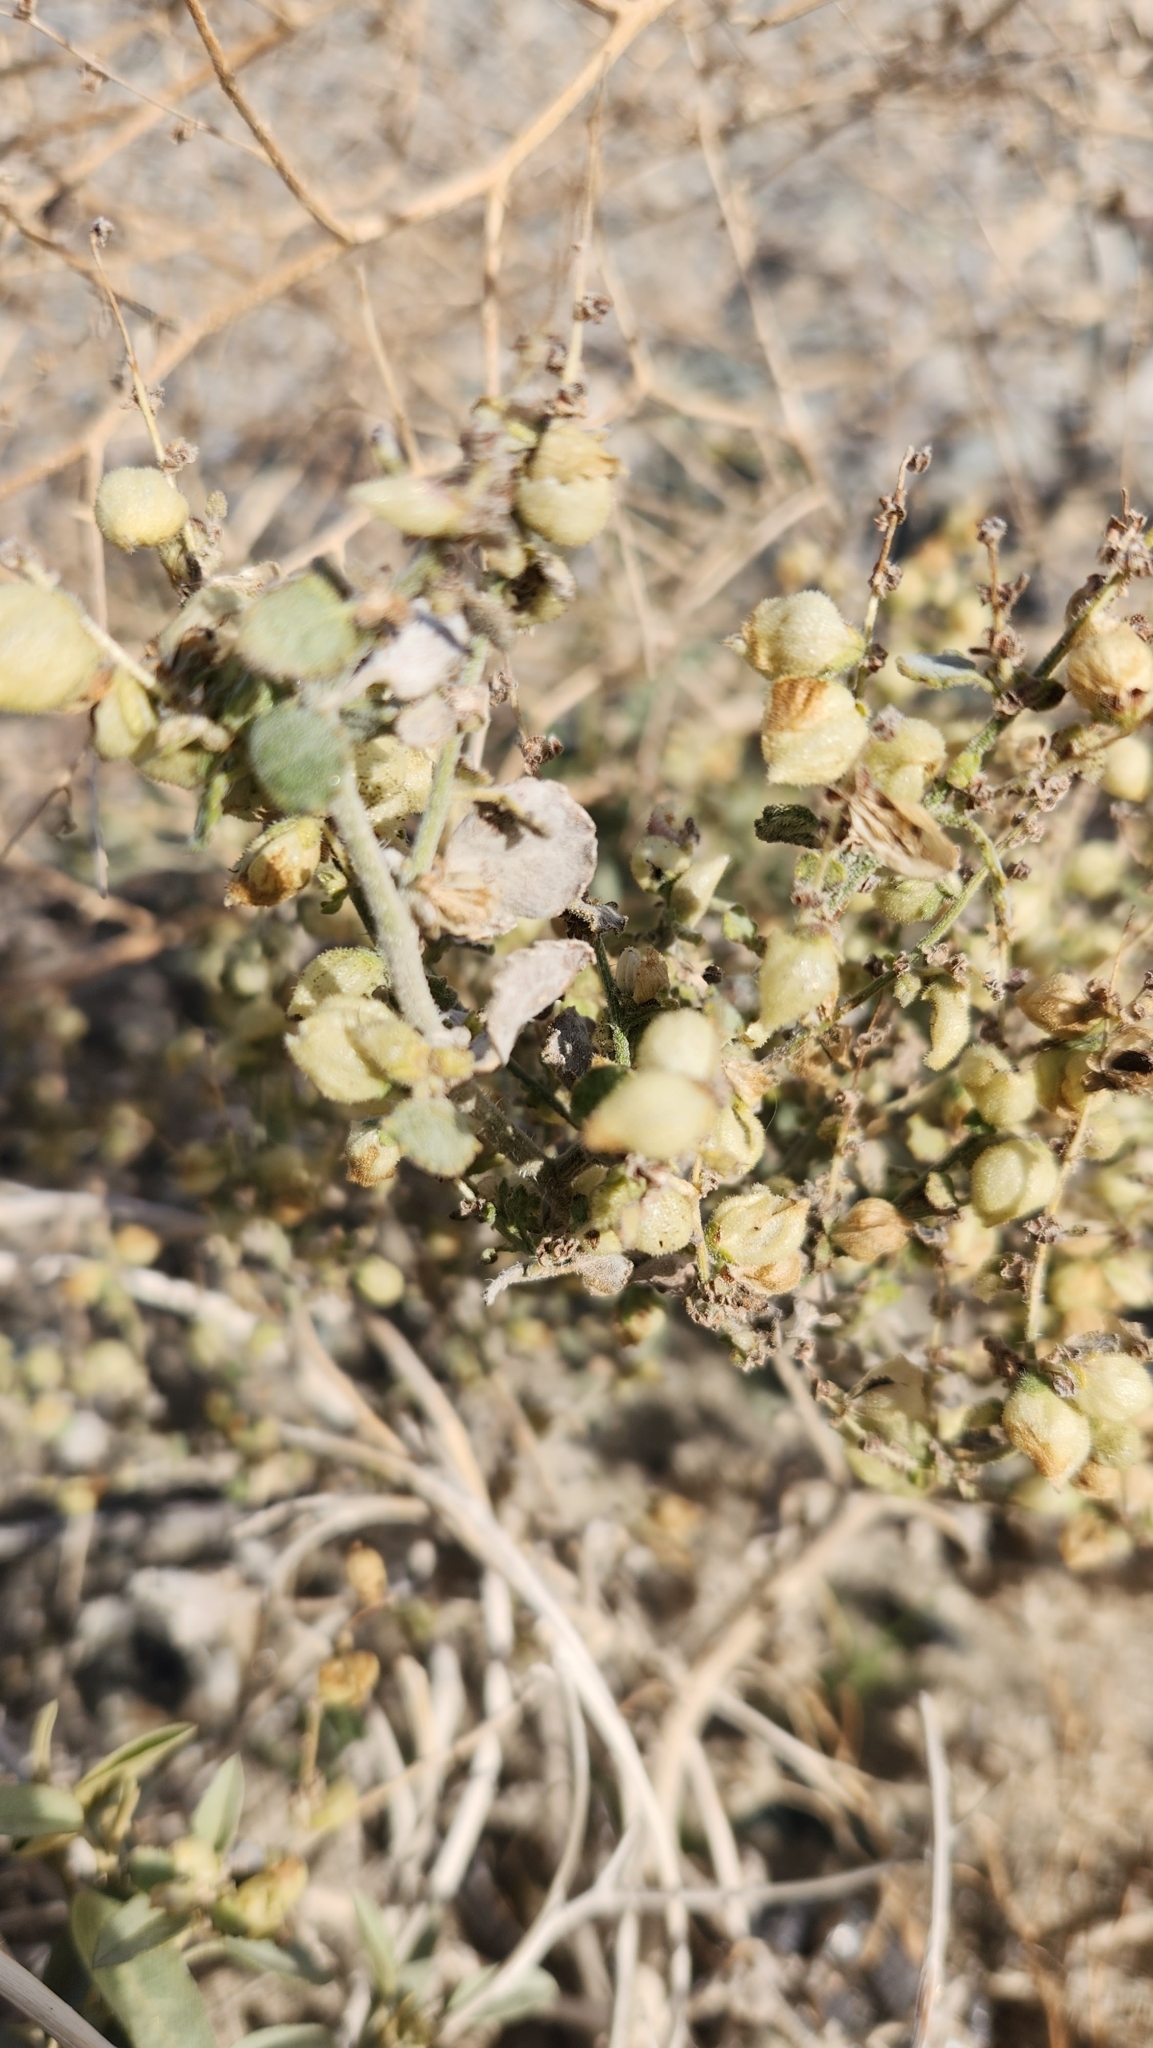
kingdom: Plantae
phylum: Tracheophyta
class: Magnoliopsida
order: Asterales
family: Asteraceae
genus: Dicoria
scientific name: Dicoria canescens
